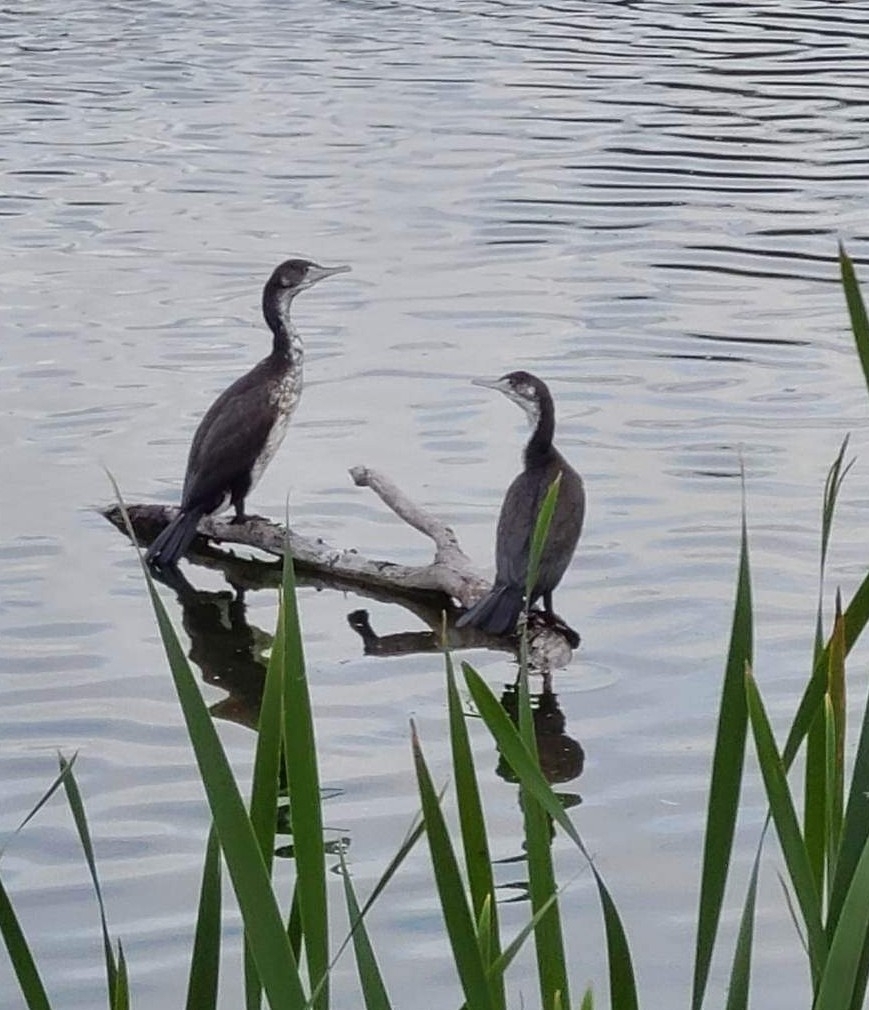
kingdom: Animalia
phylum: Chordata
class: Aves
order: Suliformes
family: Phalacrocoracidae
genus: Phalacrocorax
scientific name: Phalacrocorax varius
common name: Pied cormorant
